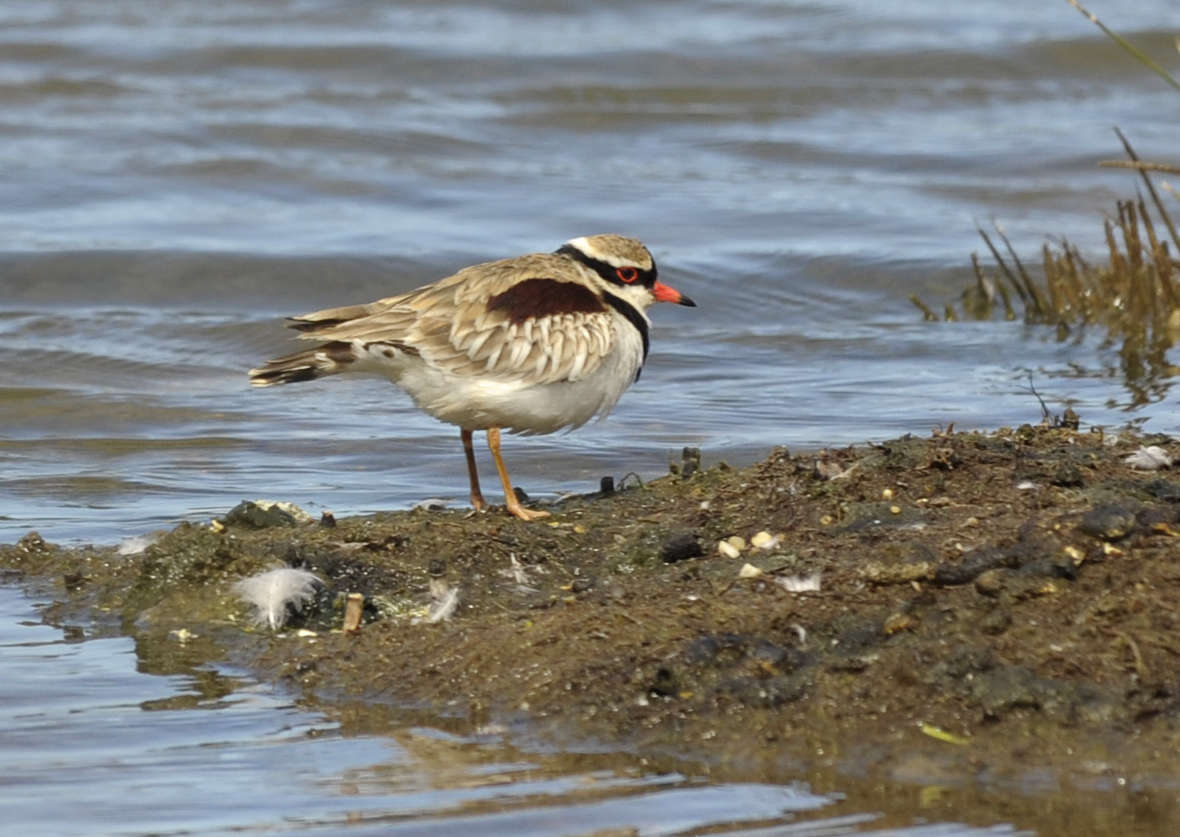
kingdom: Animalia
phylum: Chordata
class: Aves
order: Charadriiformes
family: Charadriidae
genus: Elseyornis
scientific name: Elseyornis melanops
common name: Black-fronted dotterel
